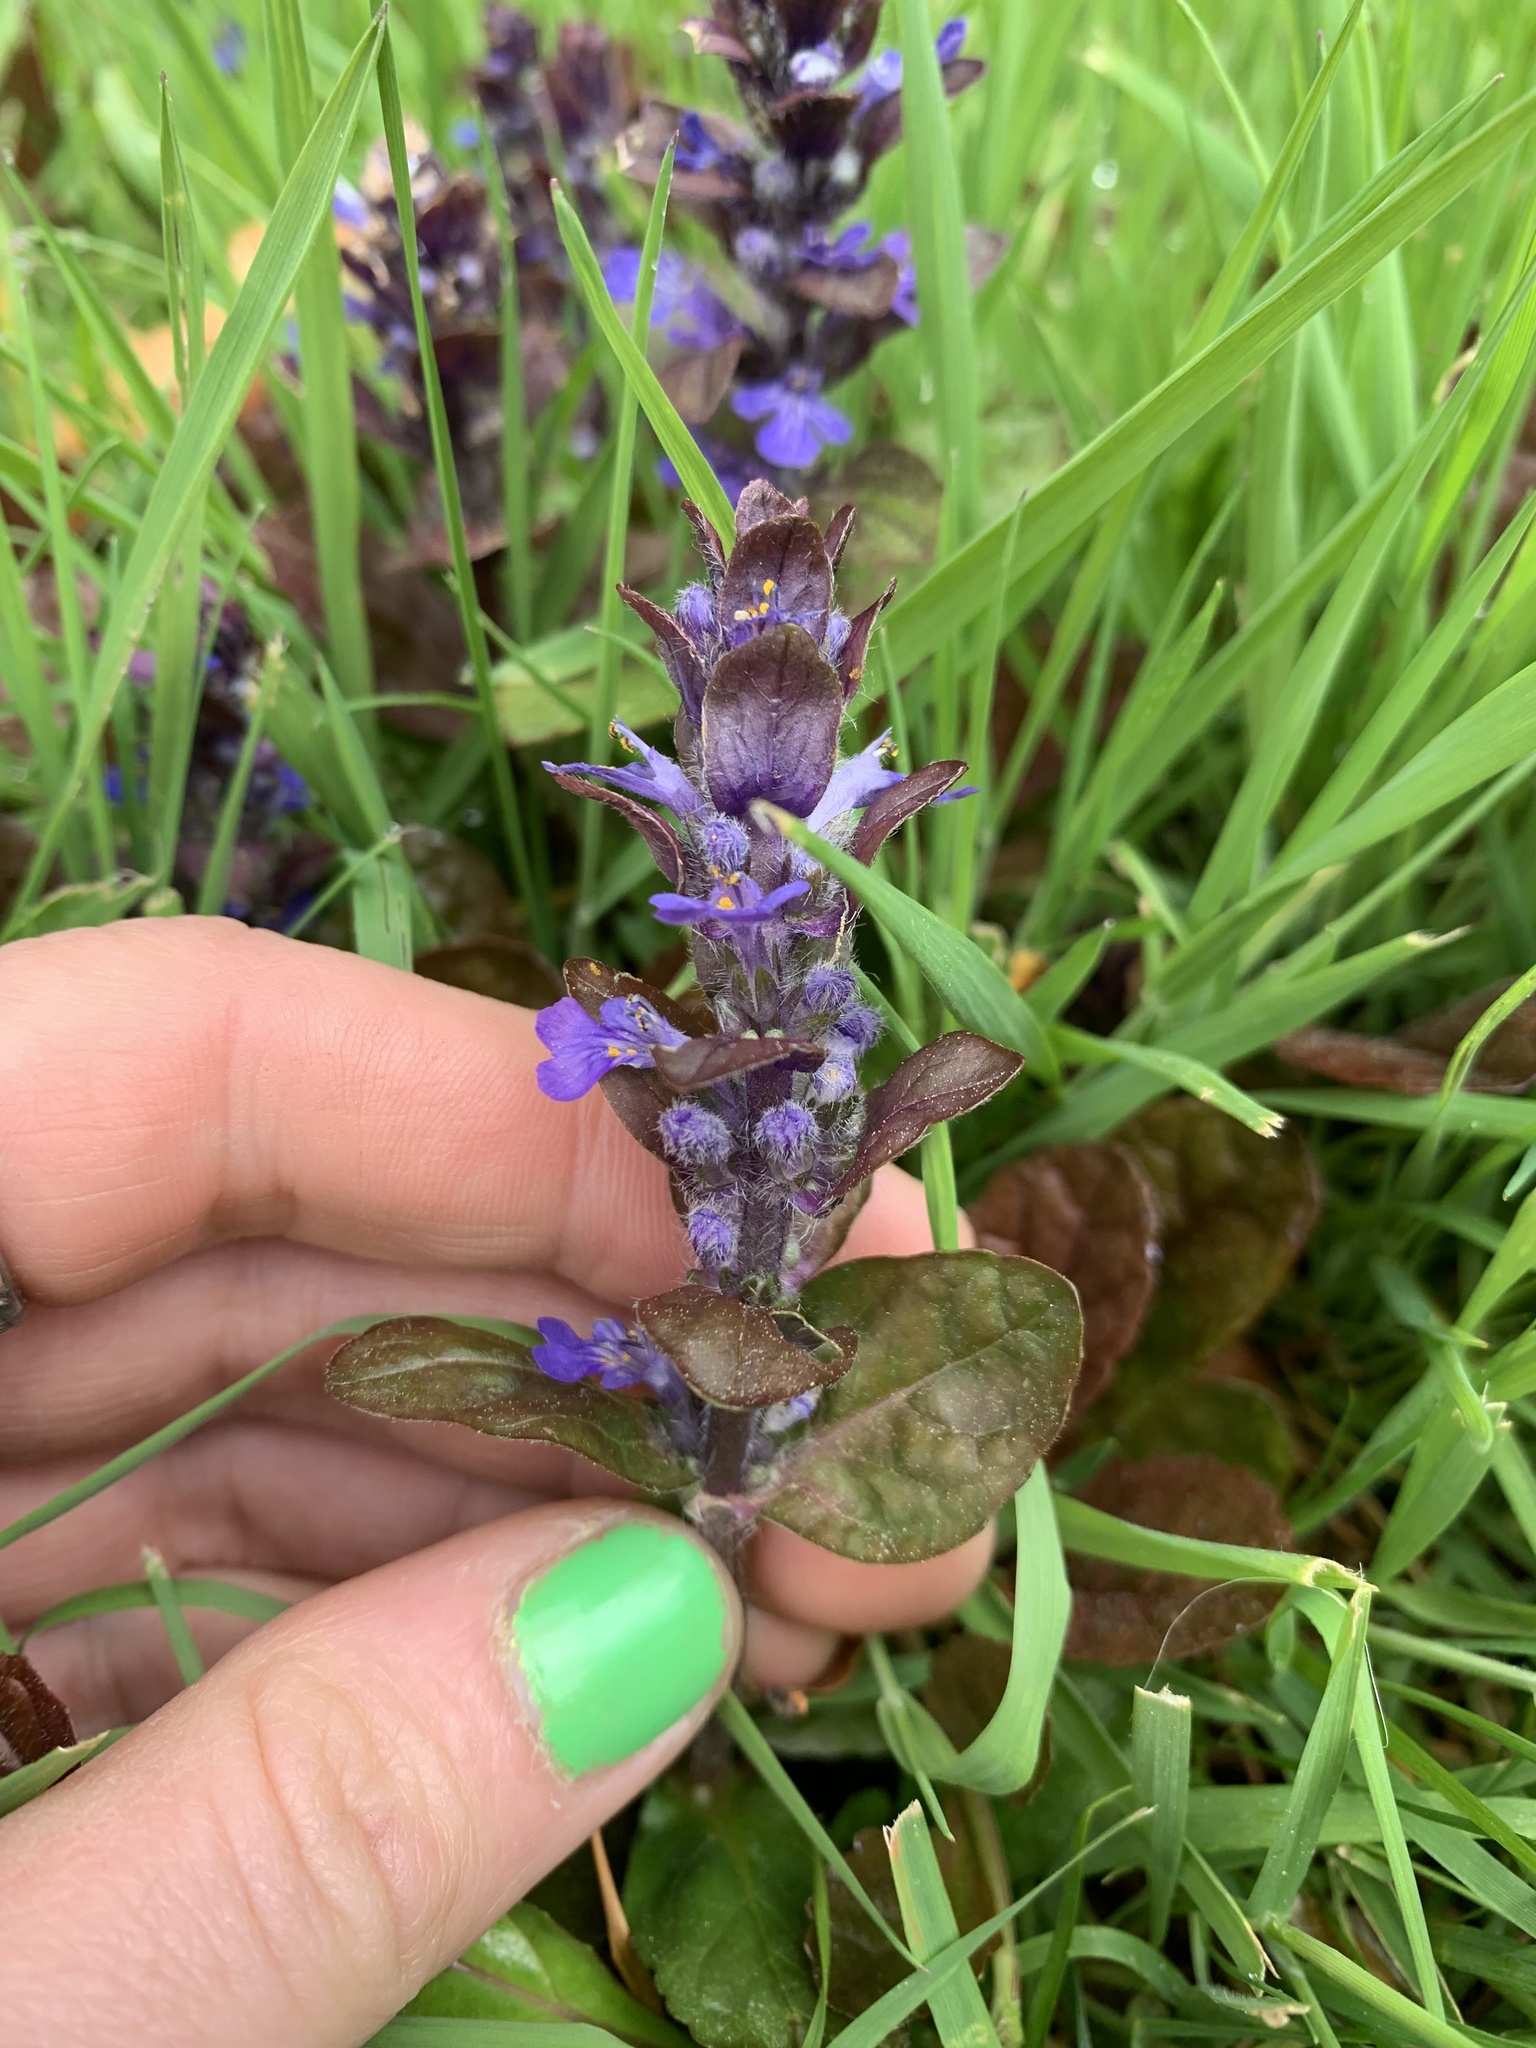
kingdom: Plantae
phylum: Tracheophyta
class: Magnoliopsida
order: Lamiales
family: Lamiaceae
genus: Ajuga
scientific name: Ajuga reptans
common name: Bugle
